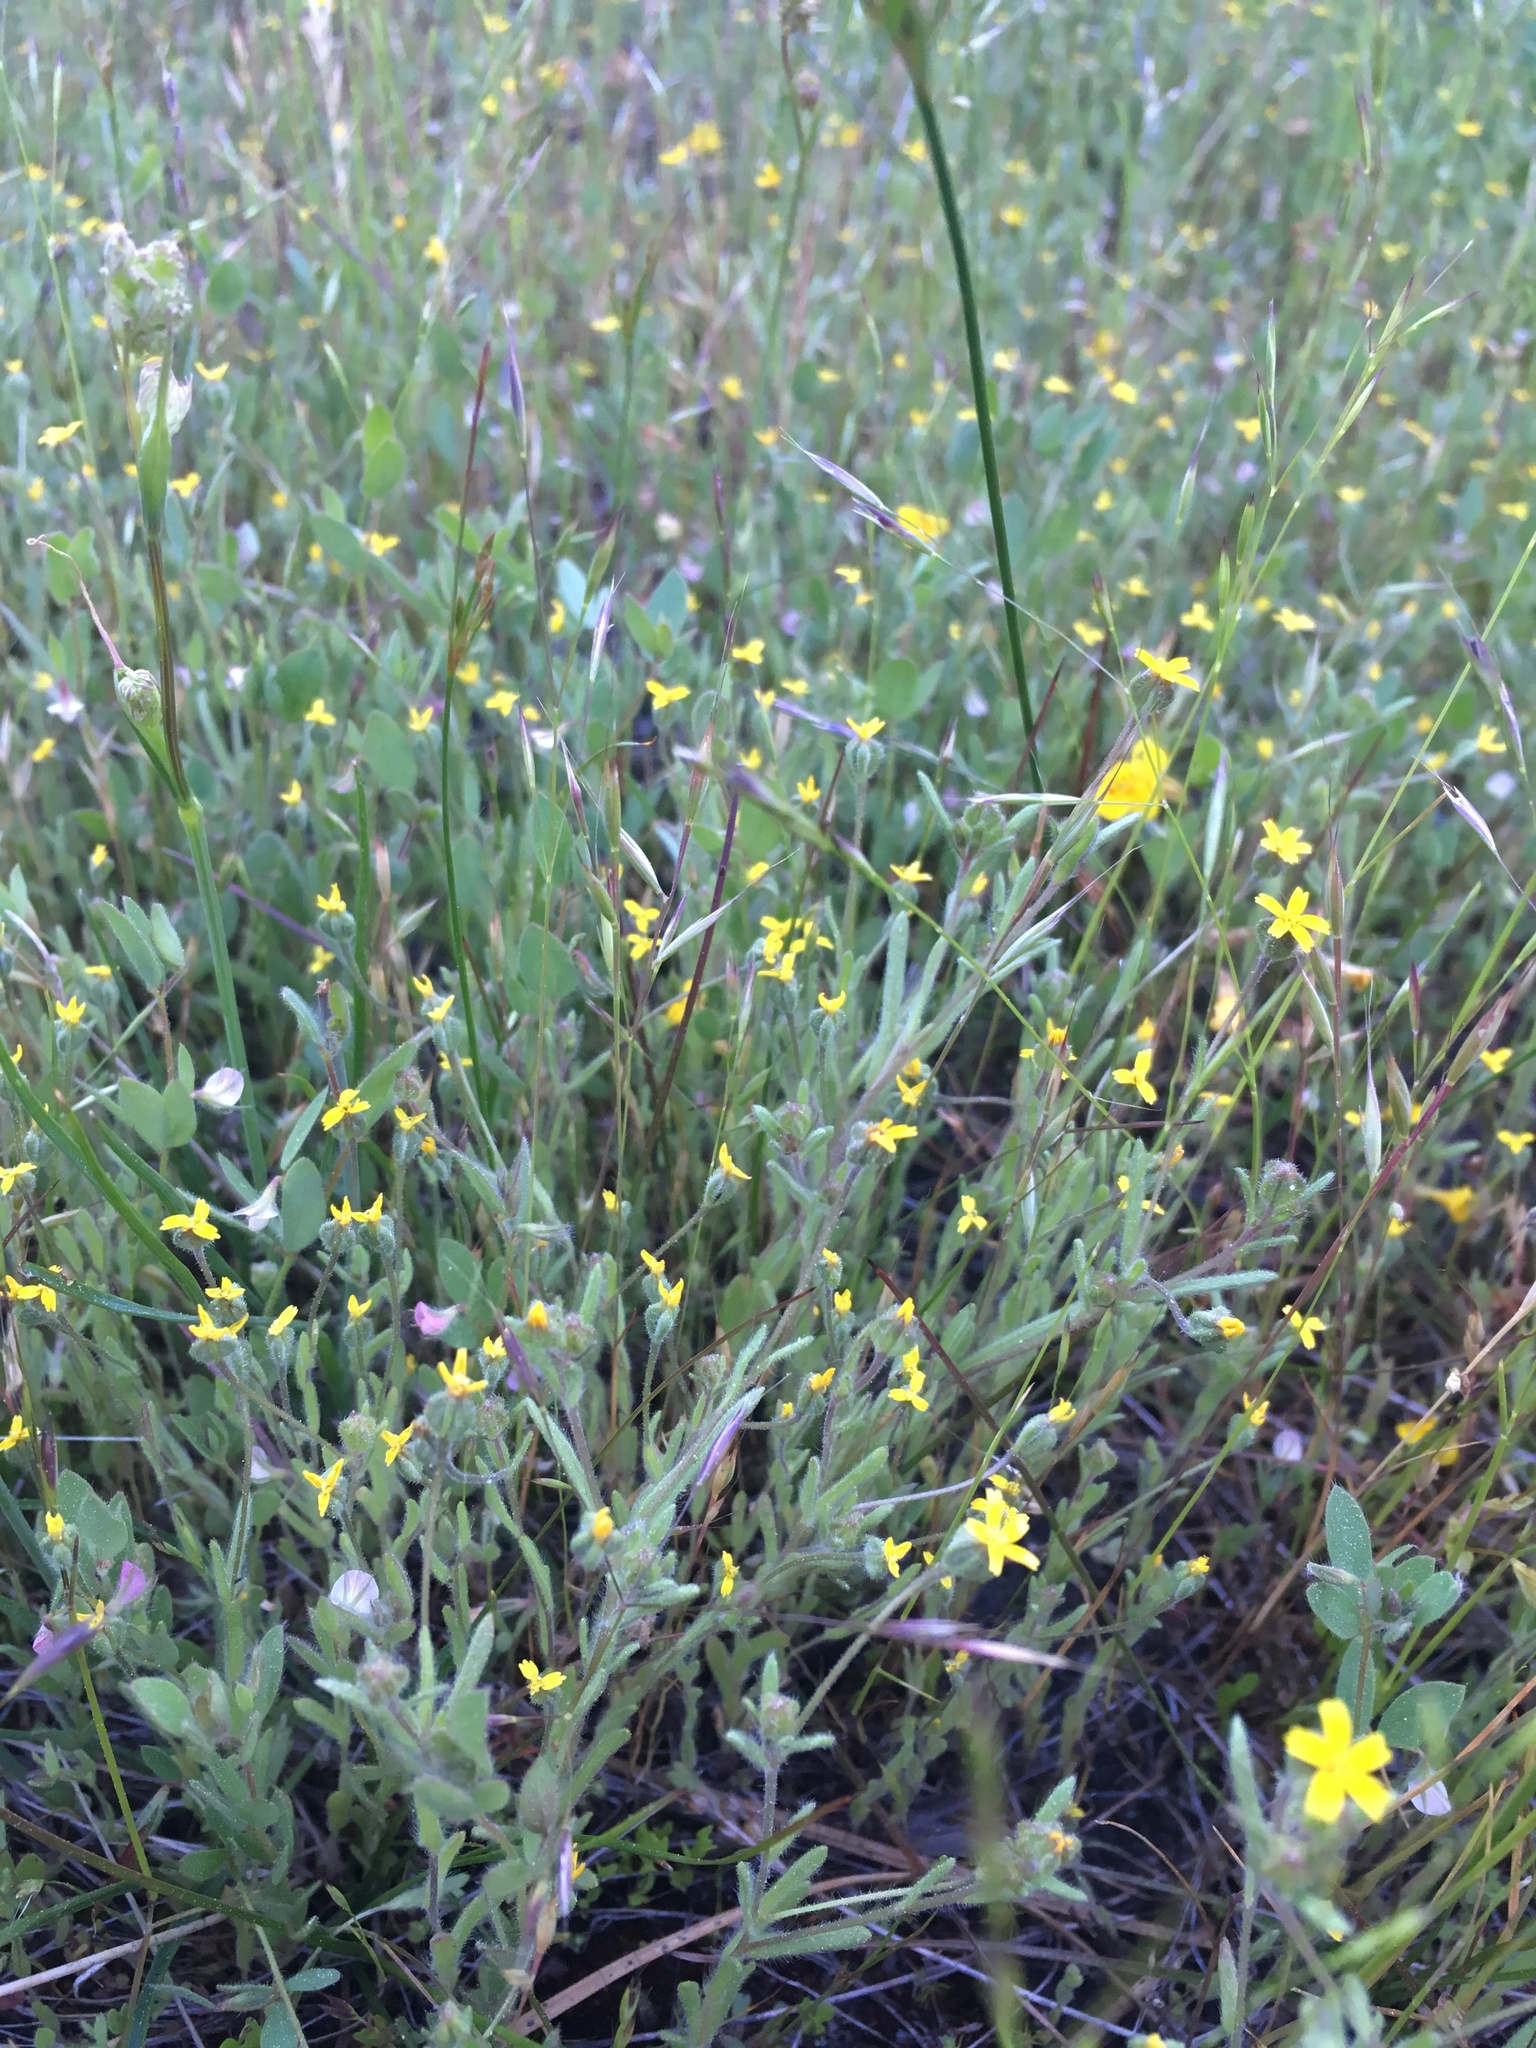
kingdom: Plantae
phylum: Tracheophyta
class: Magnoliopsida
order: Asterales
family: Asteraceae
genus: Jensia
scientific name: Jensia yosemitana
